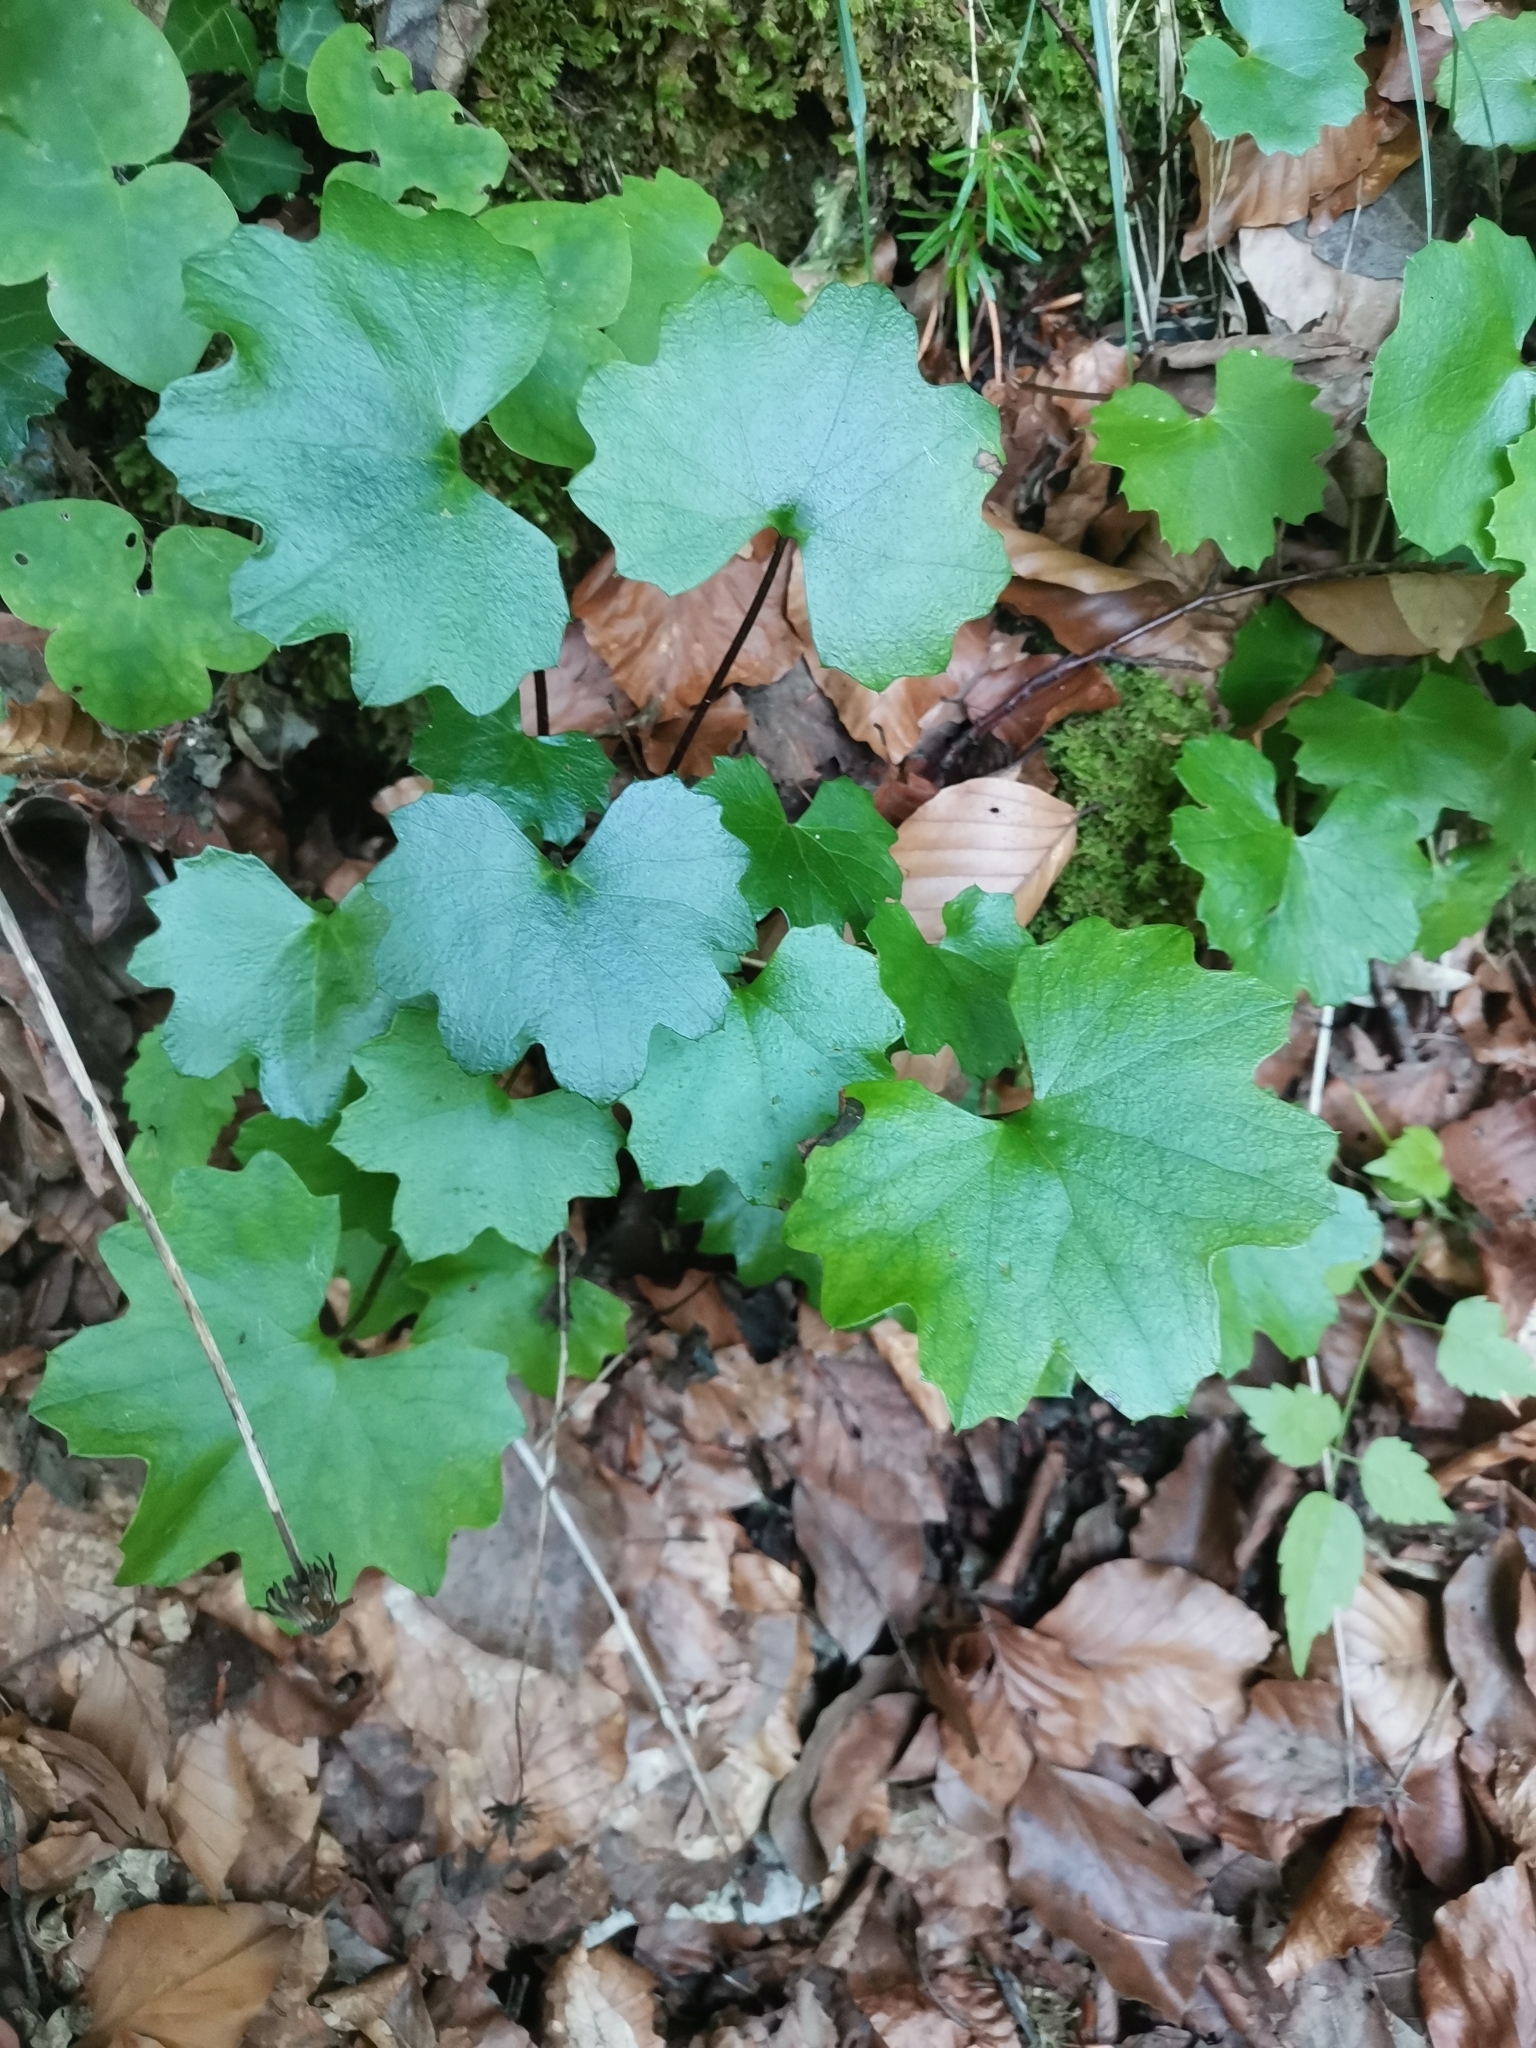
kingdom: Plantae
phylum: Tracheophyta
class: Magnoliopsida
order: Asterales
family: Asteraceae
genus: Homogyne
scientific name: Homogyne sylvestris
